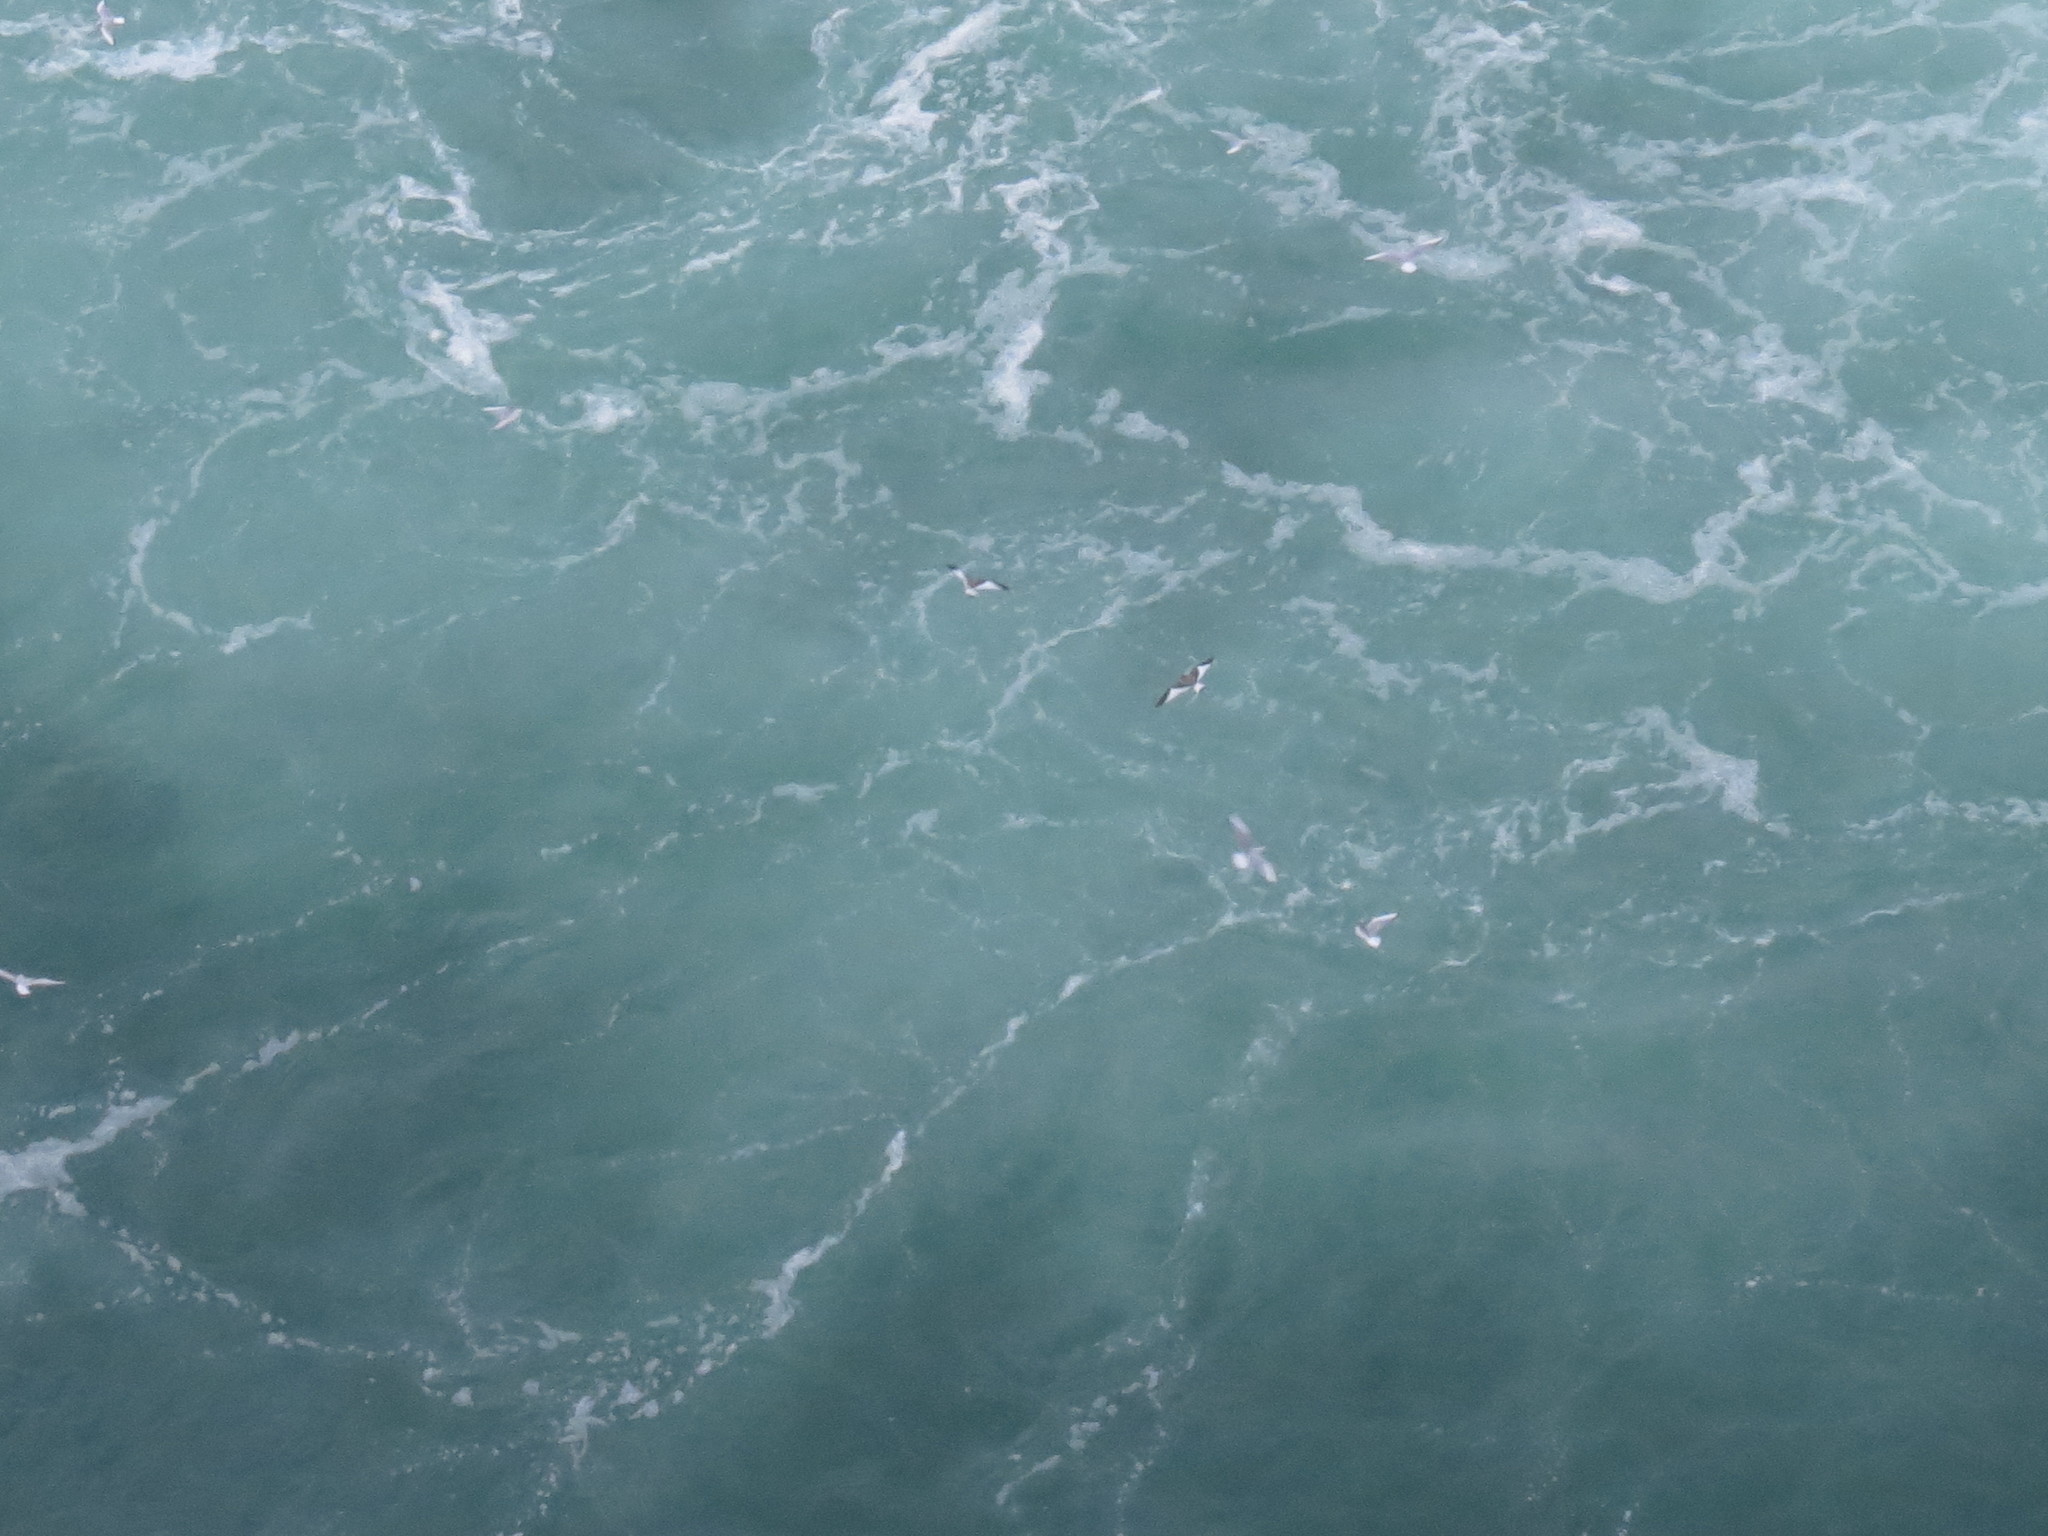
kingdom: Animalia
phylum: Chordata
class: Aves
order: Charadriiformes
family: Laridae
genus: Xema
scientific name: Xema sabini
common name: Sabine's gull
